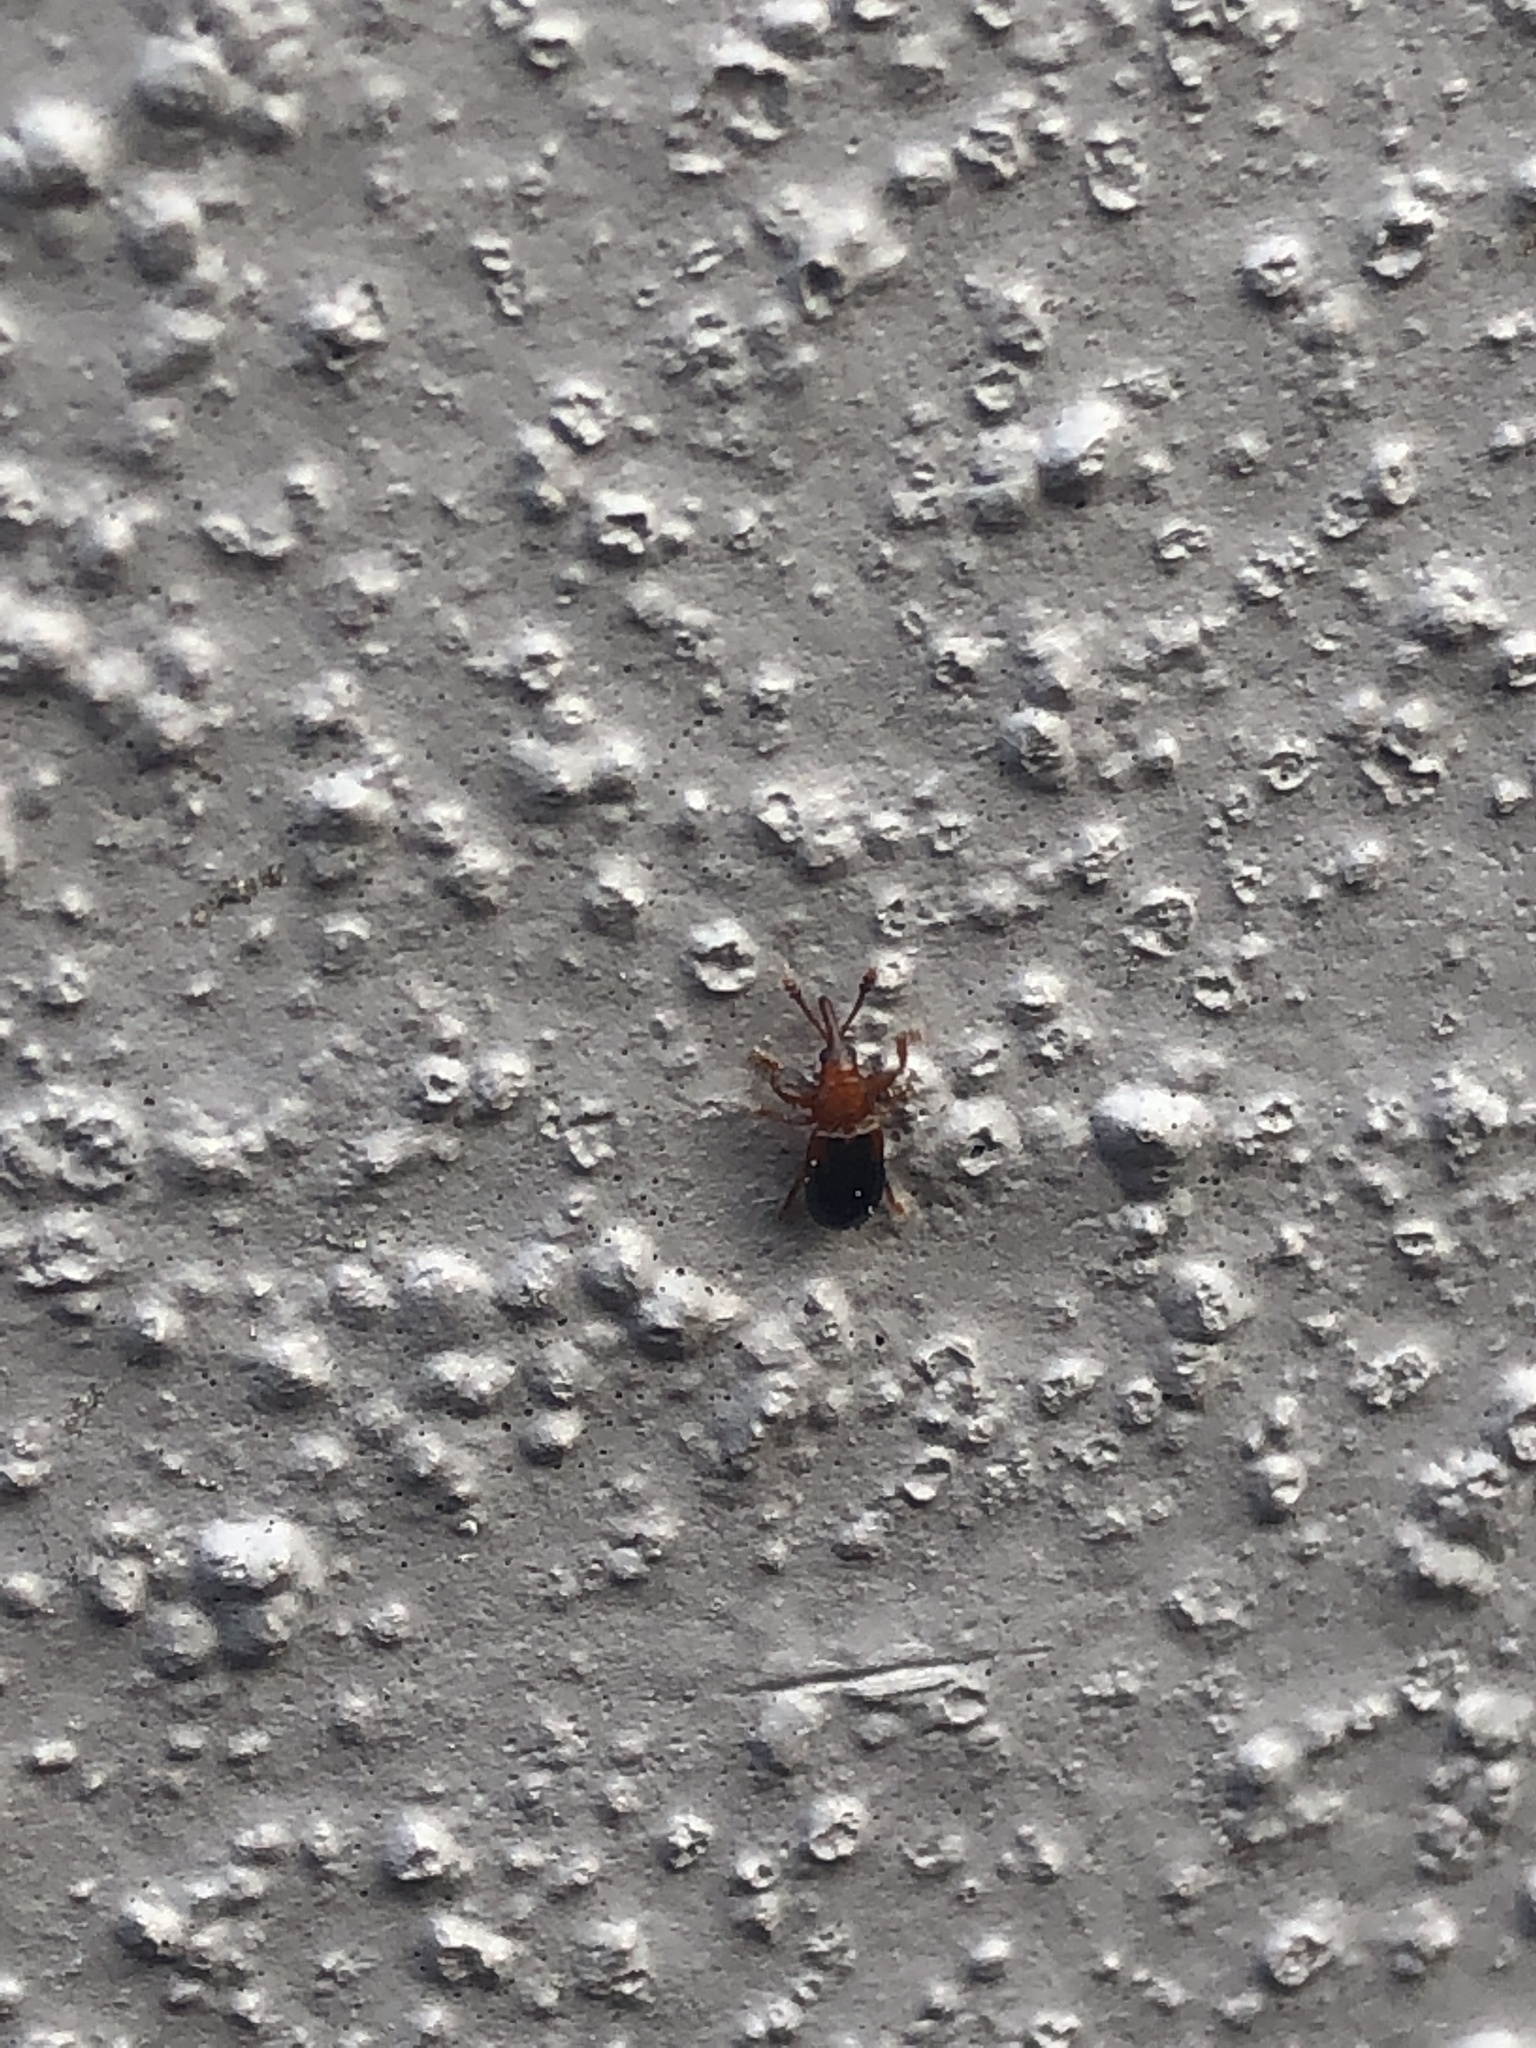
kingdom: Animalia
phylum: Arthropoda
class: Insecta
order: Coleoptera
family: Belidae
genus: Allocorynus
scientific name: Allocorynus slossoni
